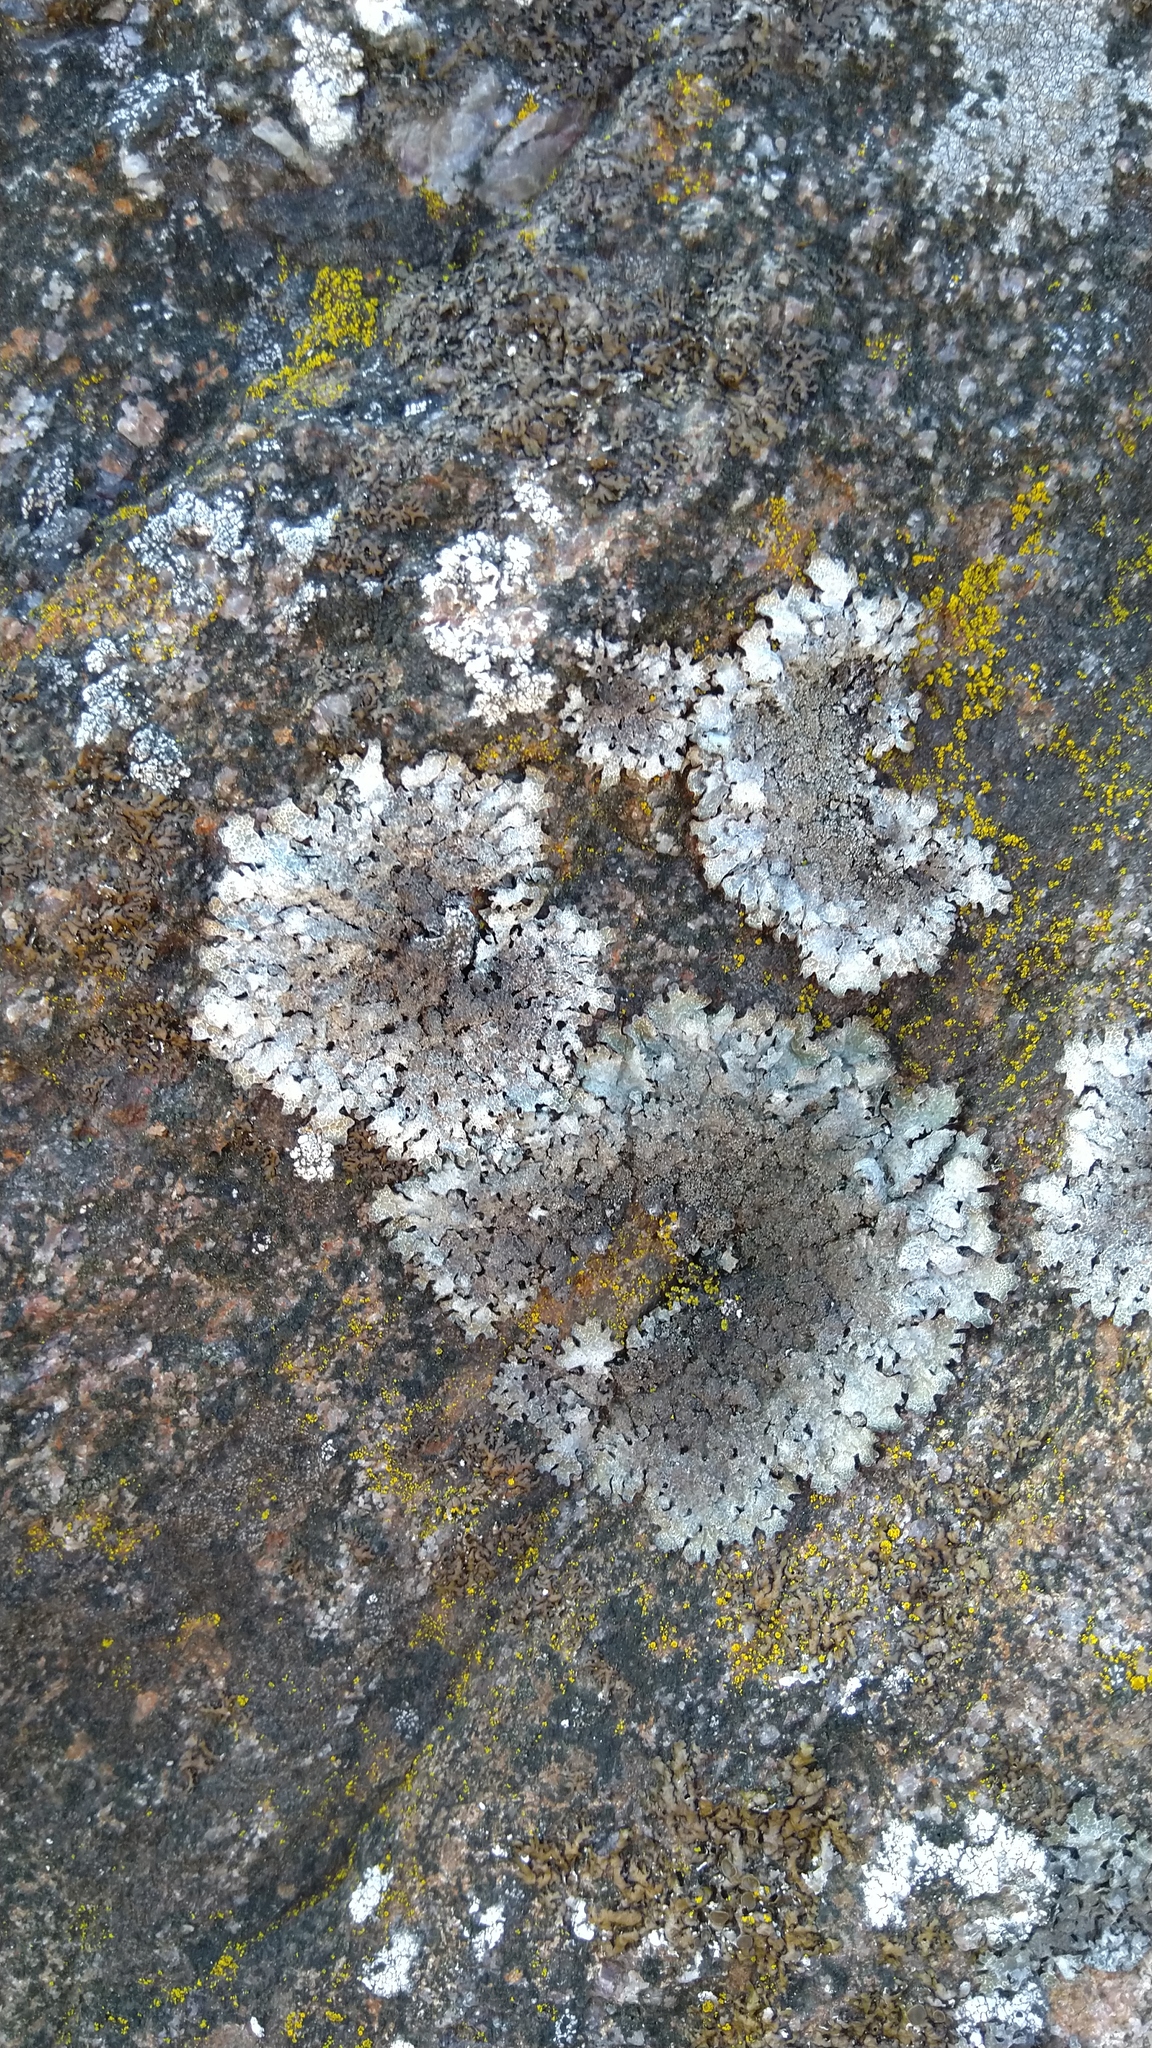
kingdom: Fungi
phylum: Ascomycota
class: Lecanoromycetes
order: Lecanorales
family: Parmeliaceae
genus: Parmelia
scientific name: Parmelia saxatilis
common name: Salted shield lichen
